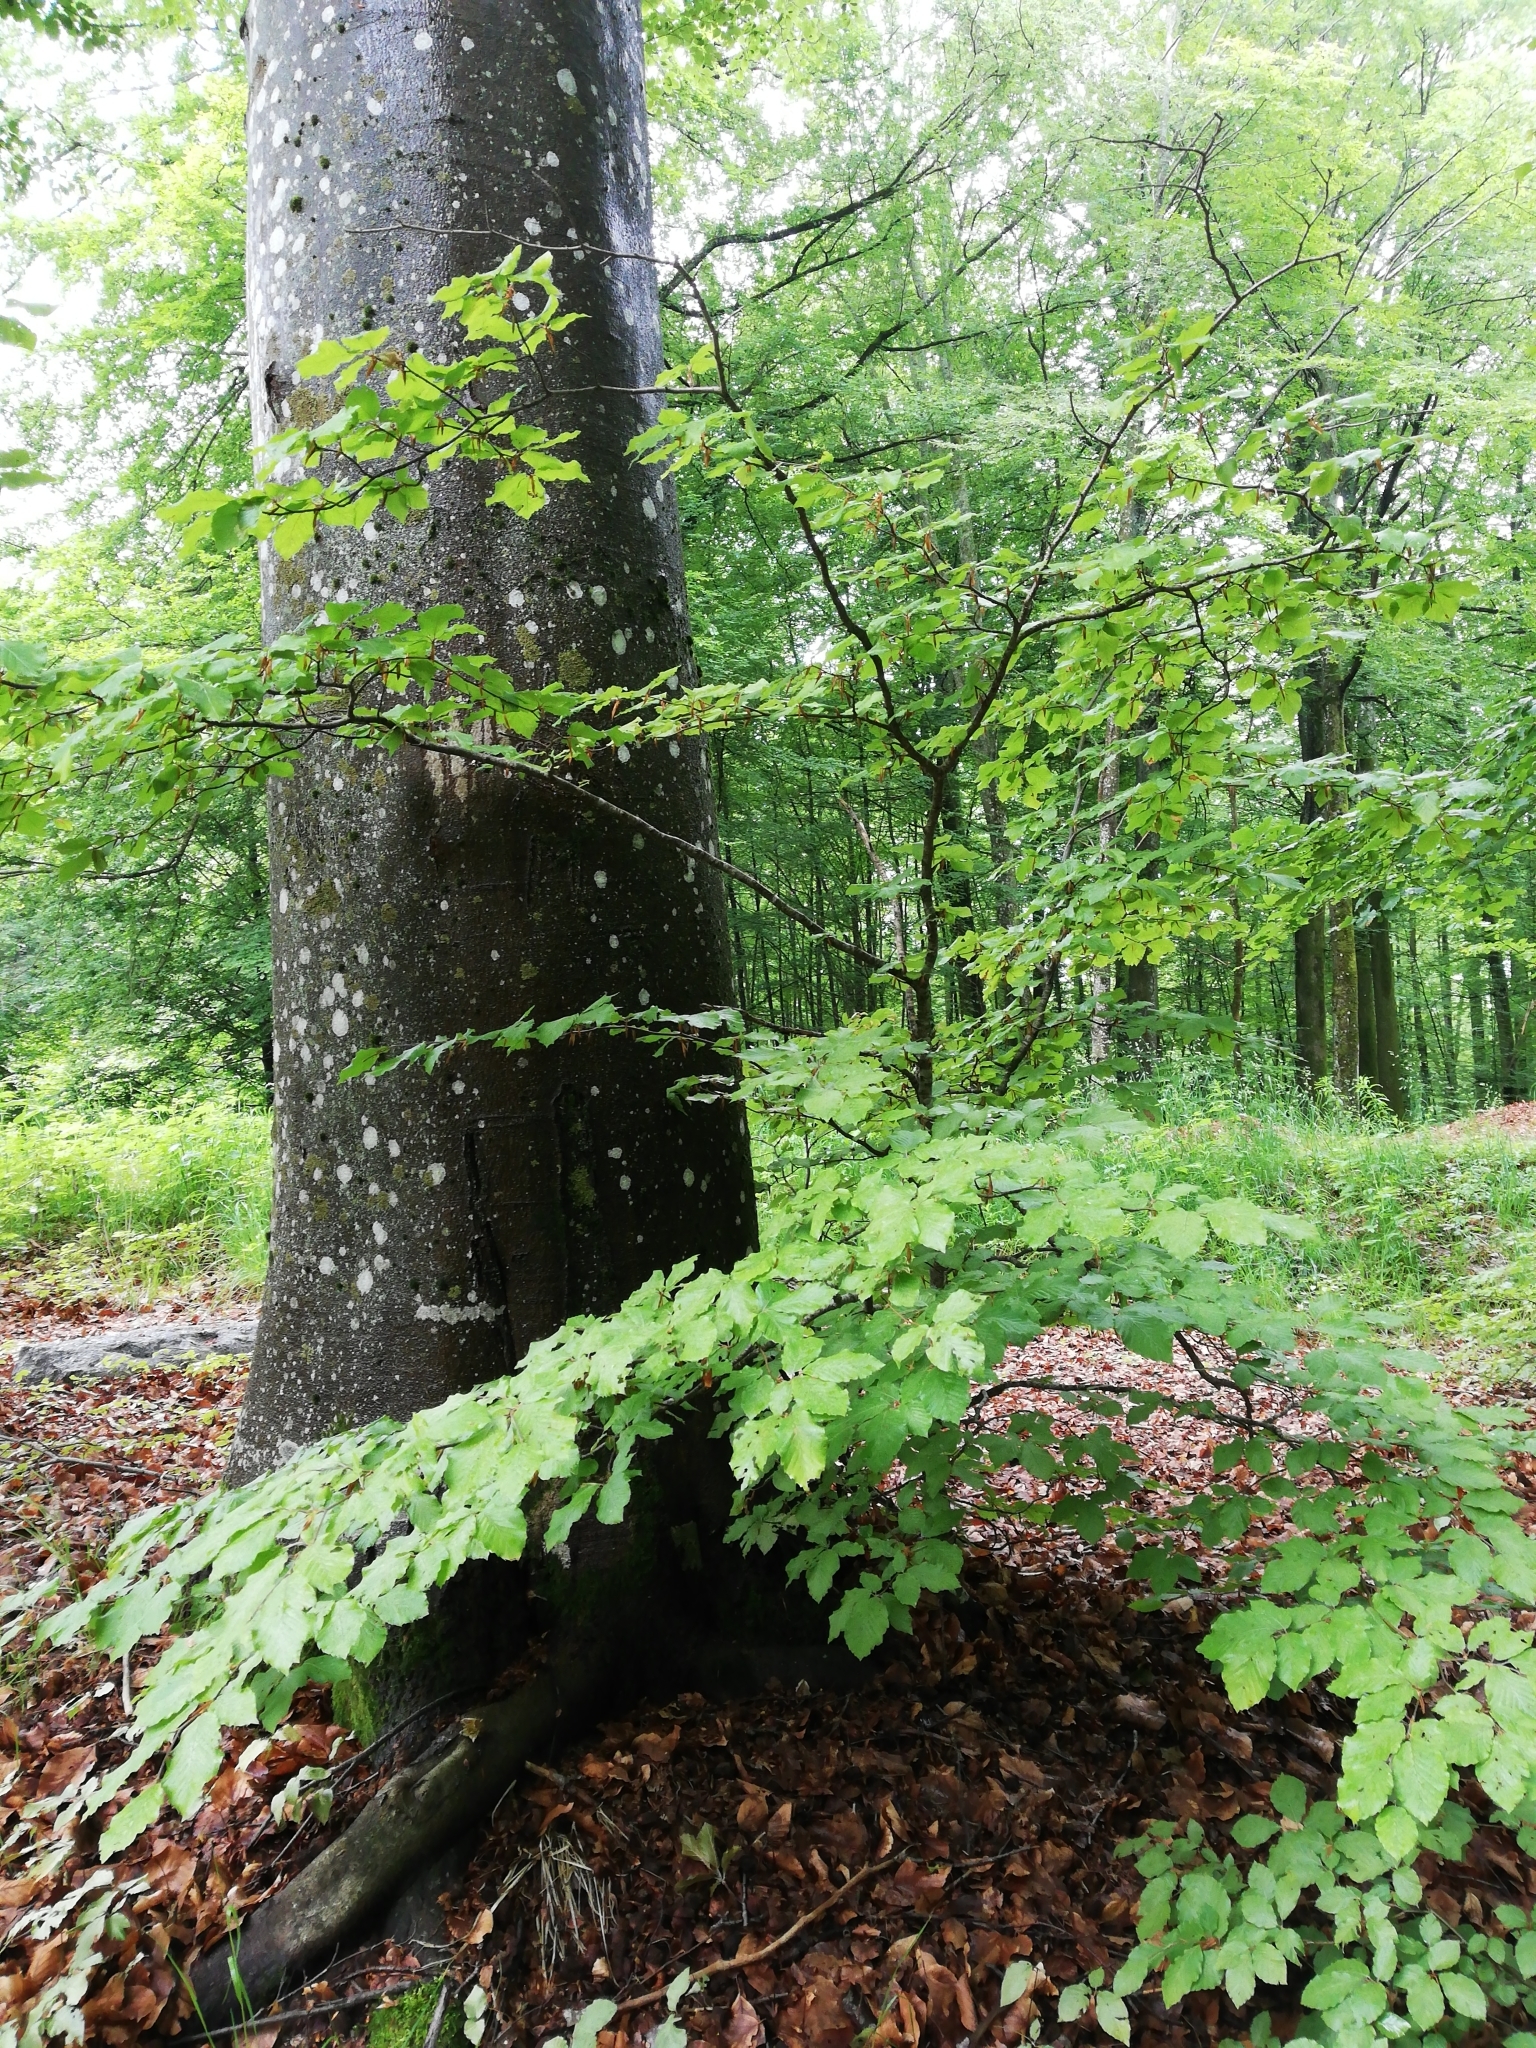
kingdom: Plantae
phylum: Tracheophyta
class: Magnoliopsida
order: Fagales
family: Fagaceae
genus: Fagus
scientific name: Fagus sylvatica
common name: Beech
